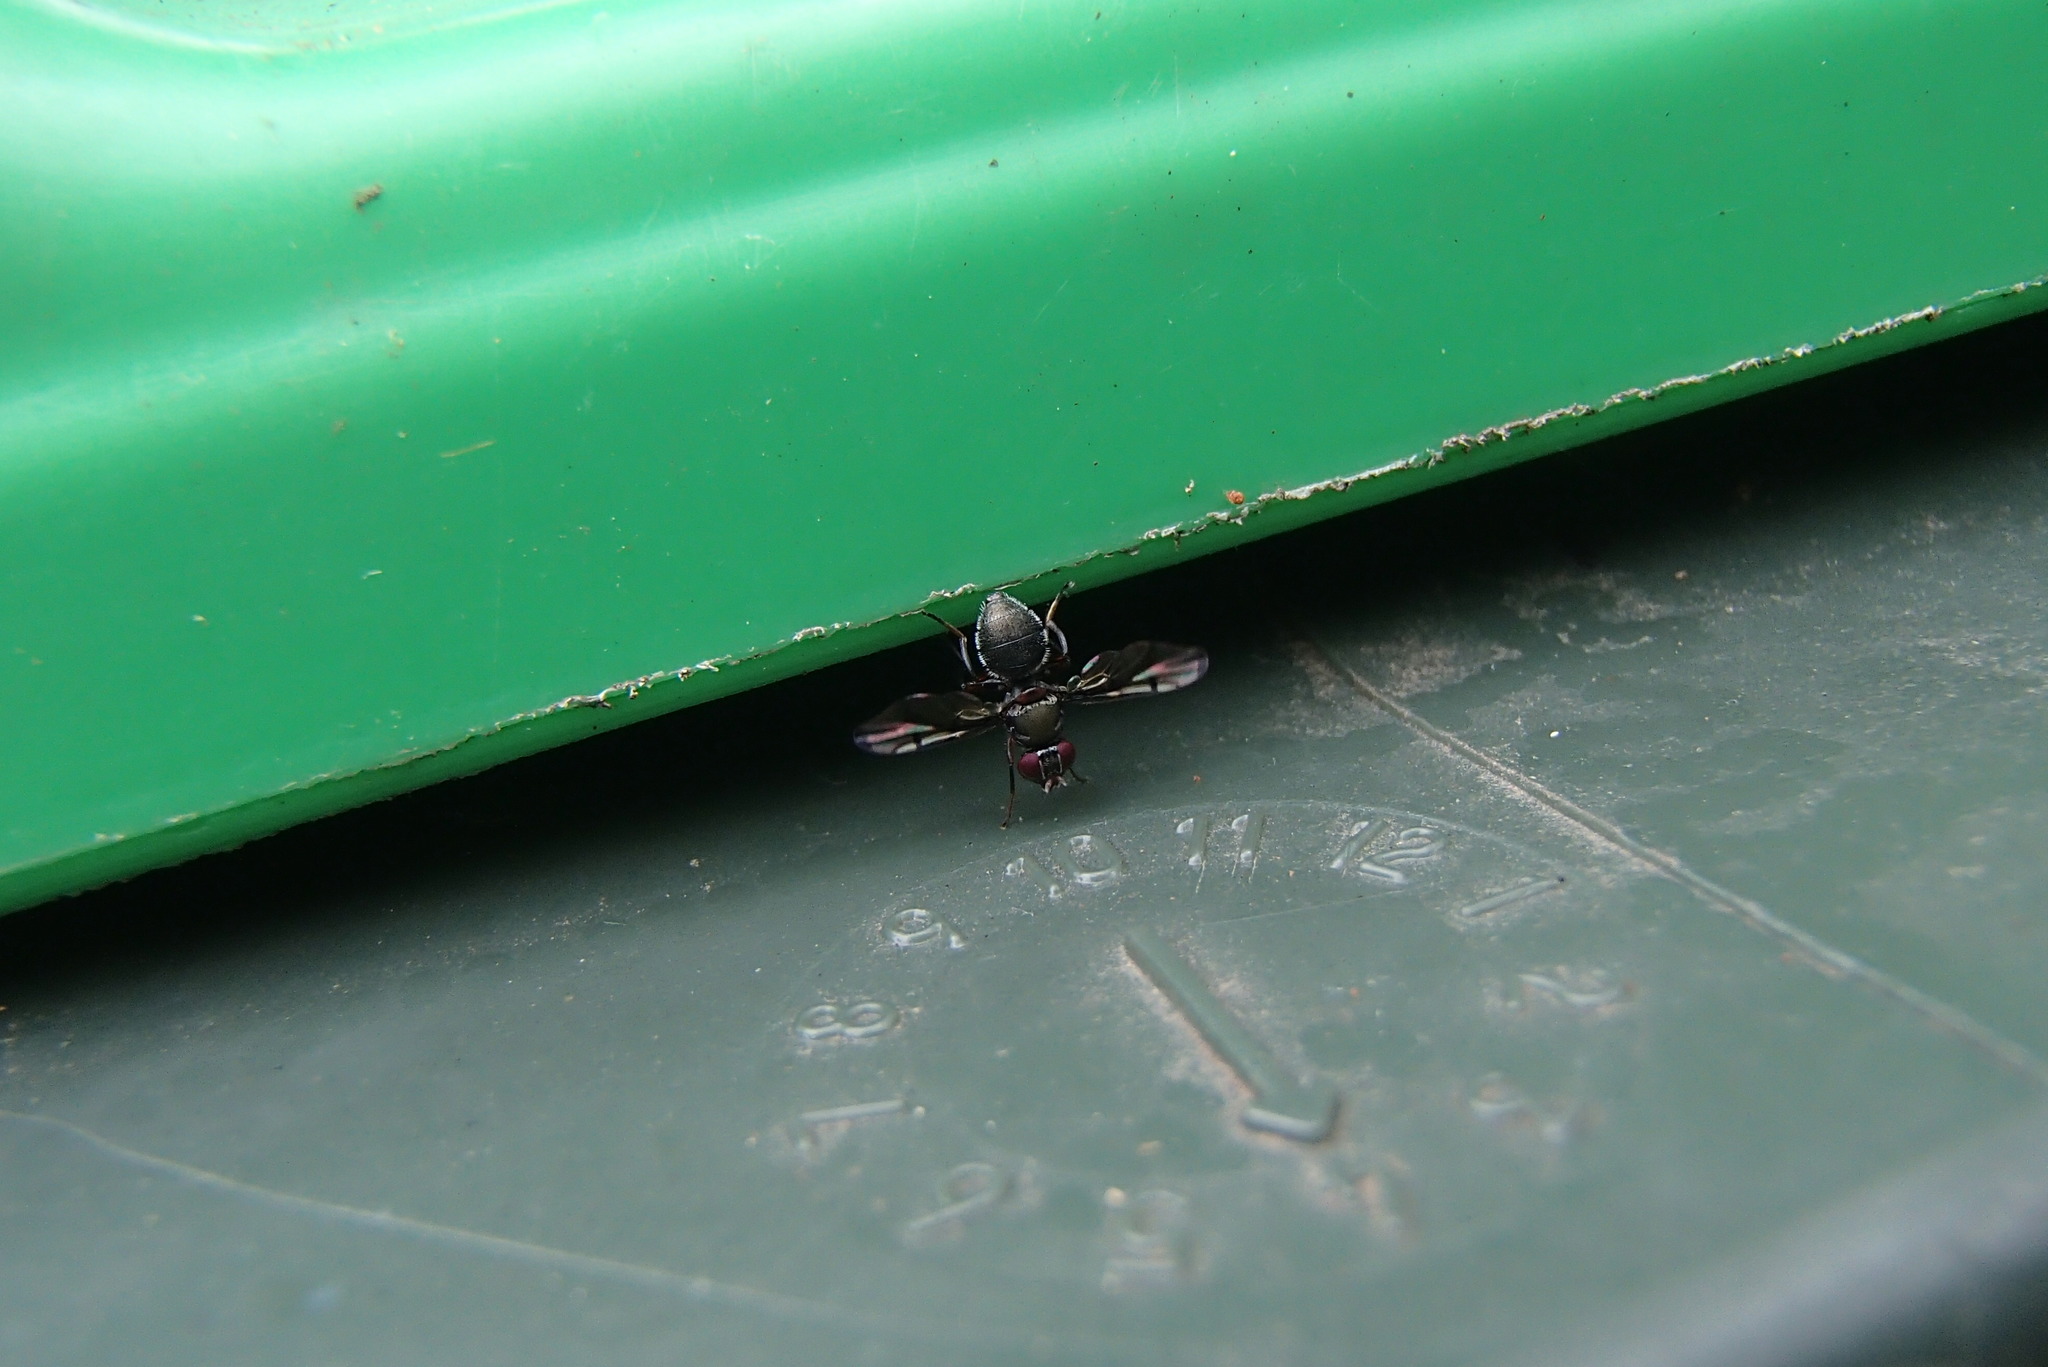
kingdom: Animalia
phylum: Arthropoda
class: Insecta
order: Diptera
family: Platystomatidae
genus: Pogonortalis
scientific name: Pogonortalis doclea
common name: Boatman fly
